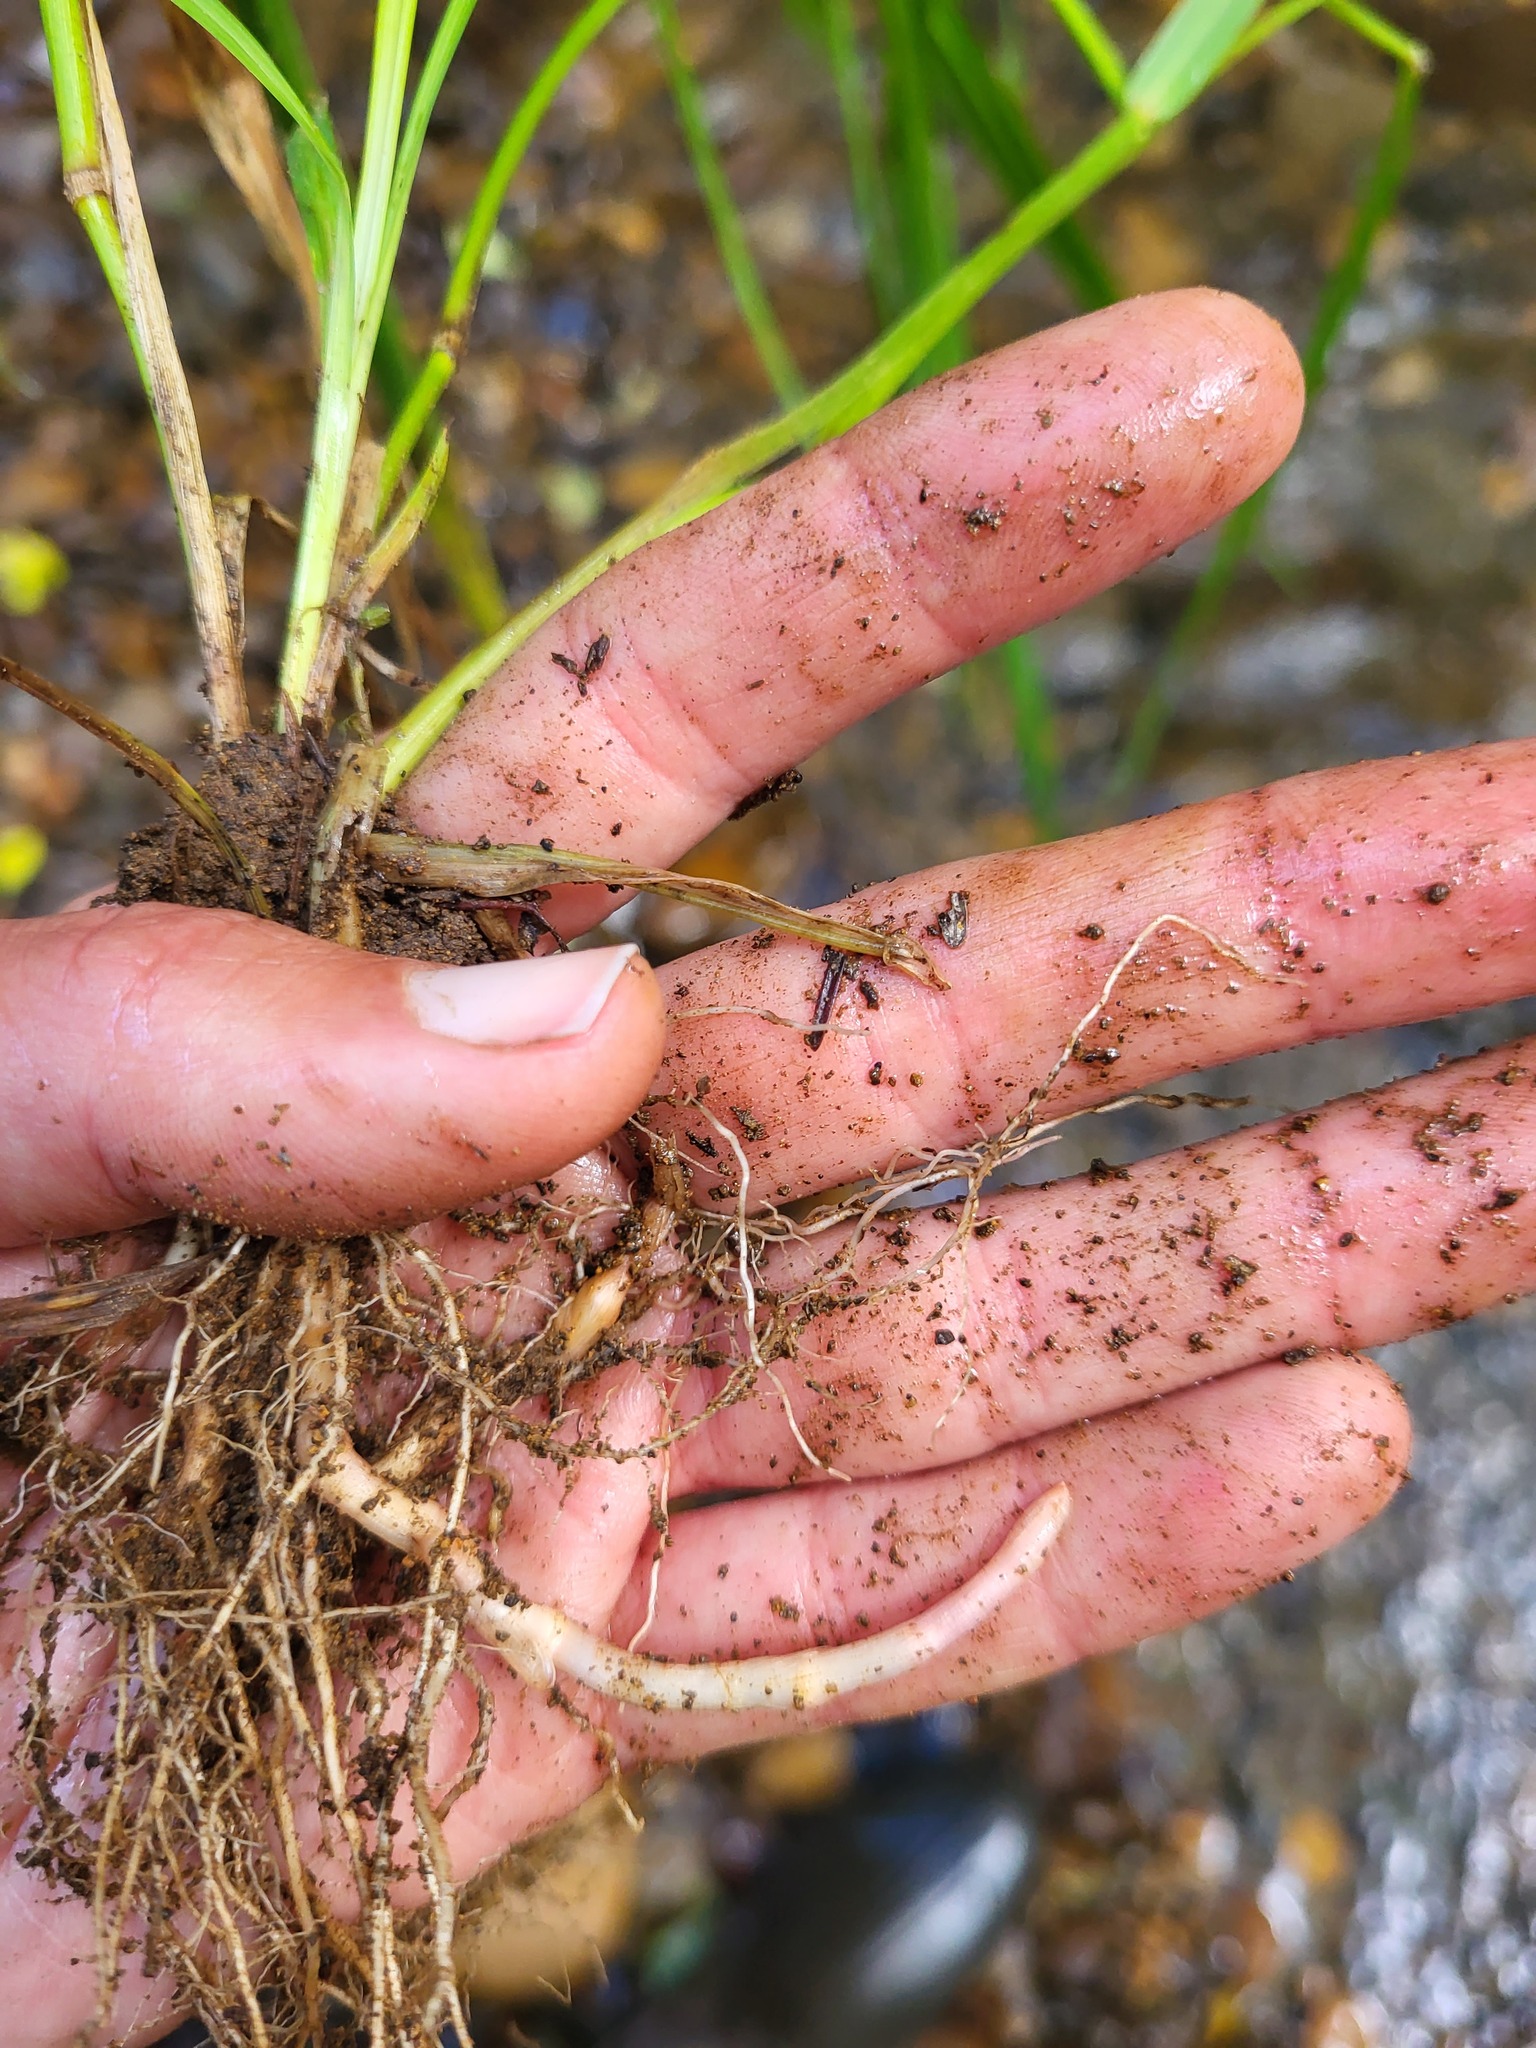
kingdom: Plantae
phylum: Tracheophyta
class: Liliopsida
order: Poales
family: Poaceae
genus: Phalaris
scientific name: Phalaris arundinacea
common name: Reed canary-grass
